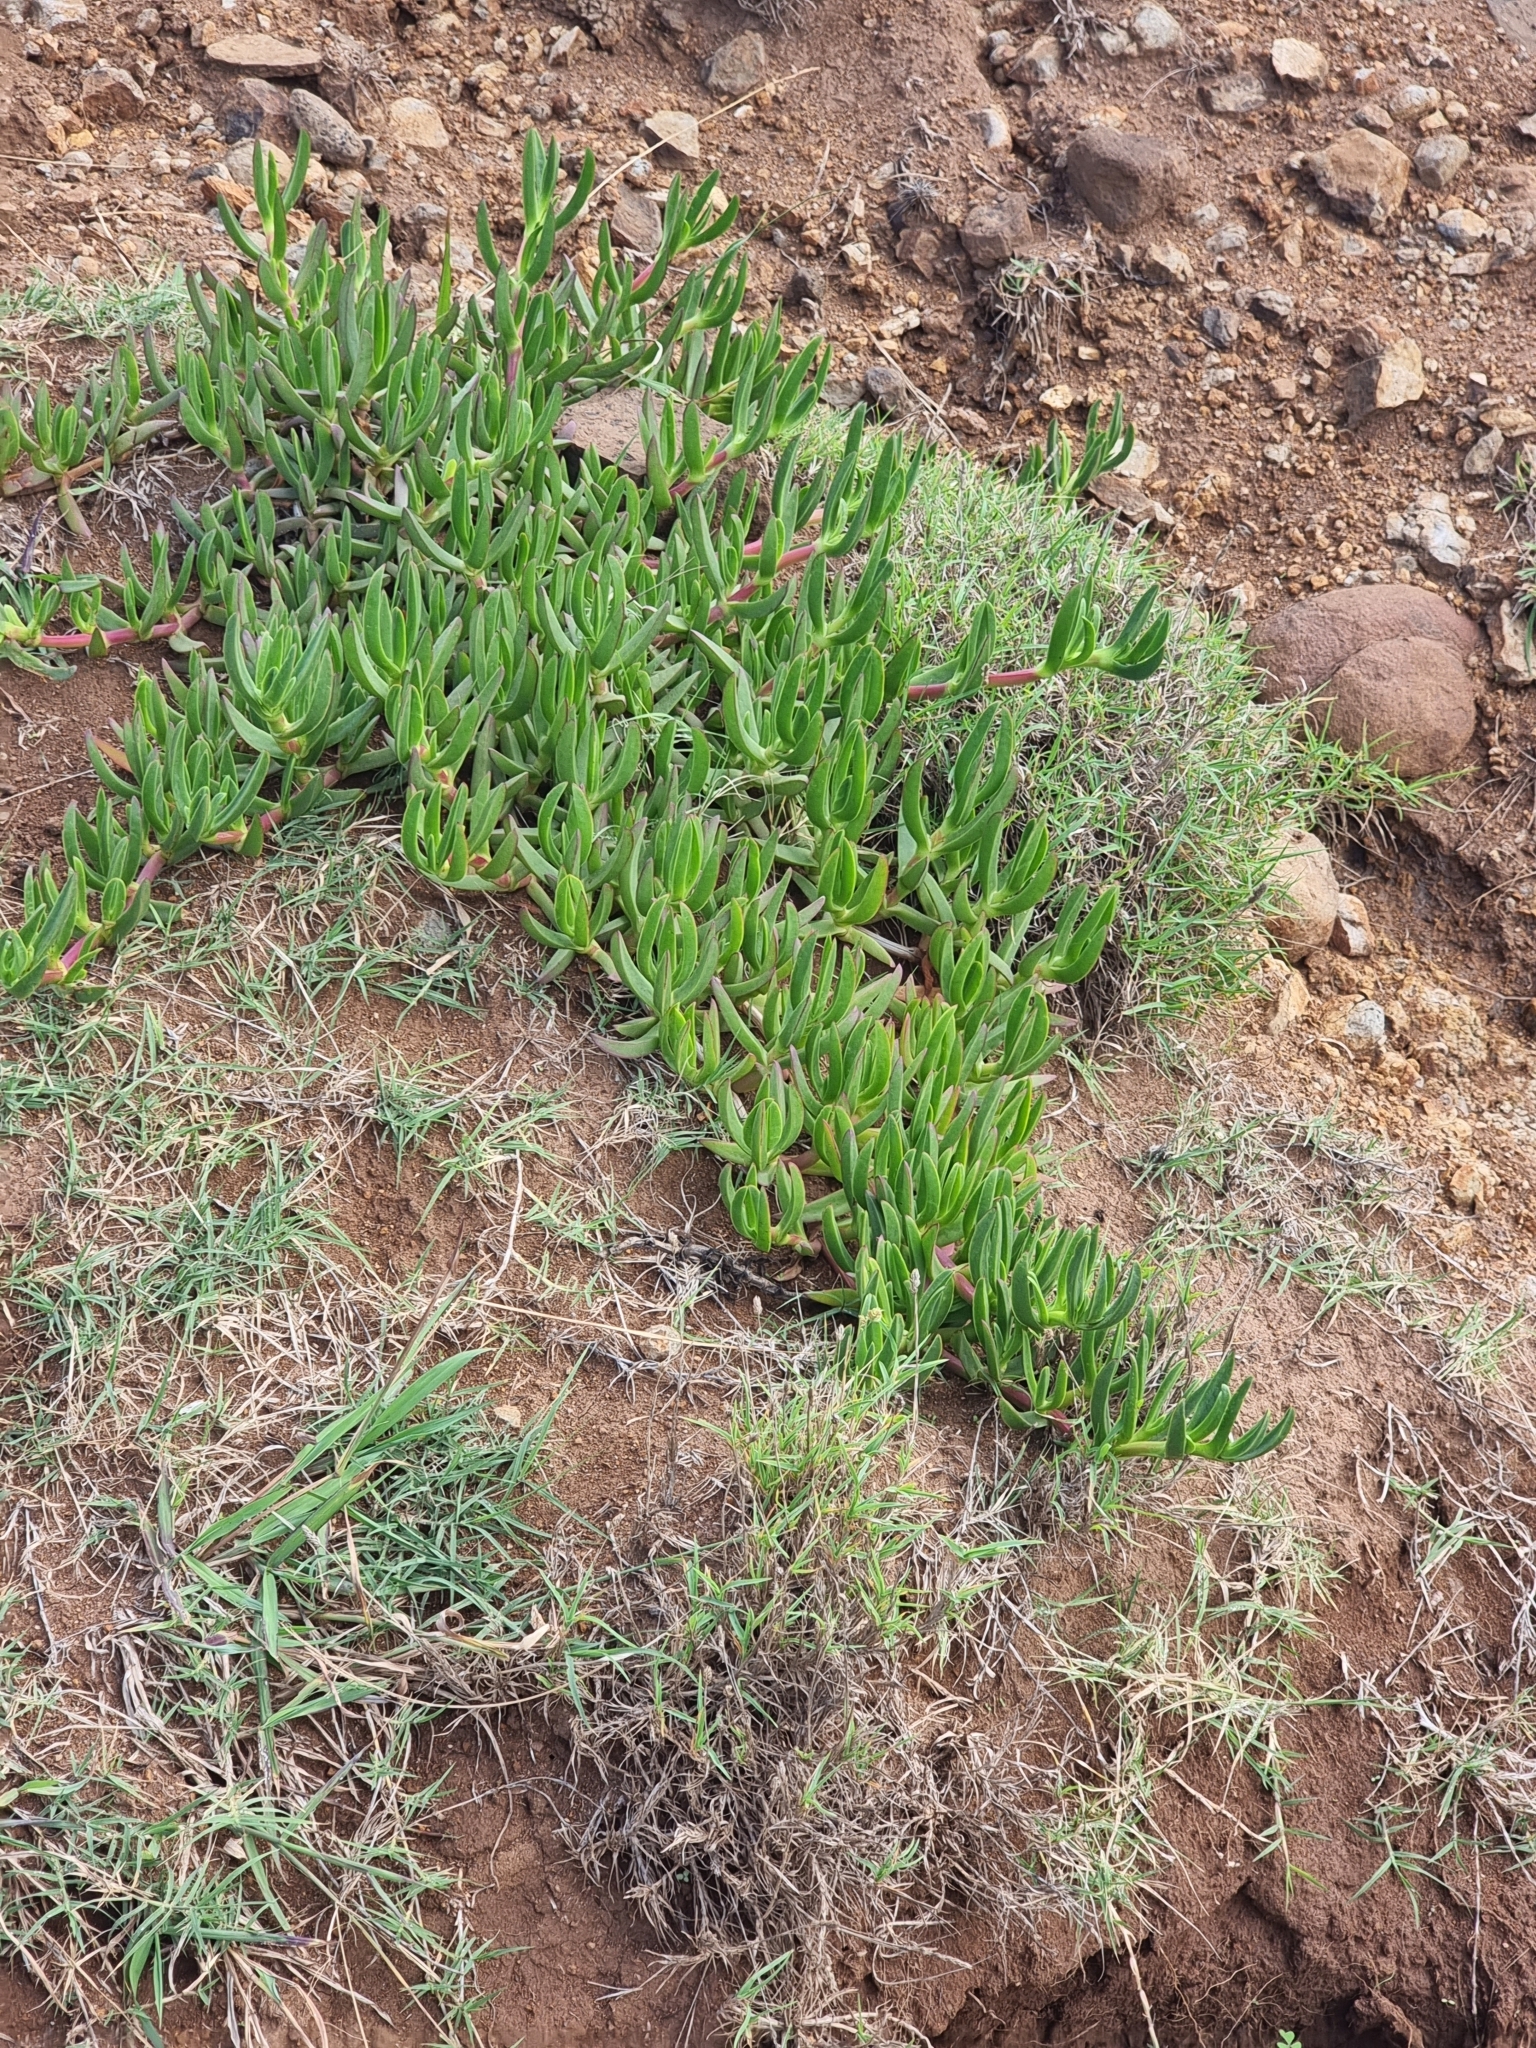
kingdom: Plantae
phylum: Tracheophyta
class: Magnoliopsida
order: Caryophyllales
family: Aizoaceae
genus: Carpobrotus
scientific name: Carpobrotus edulis
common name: Hottentot-fig
